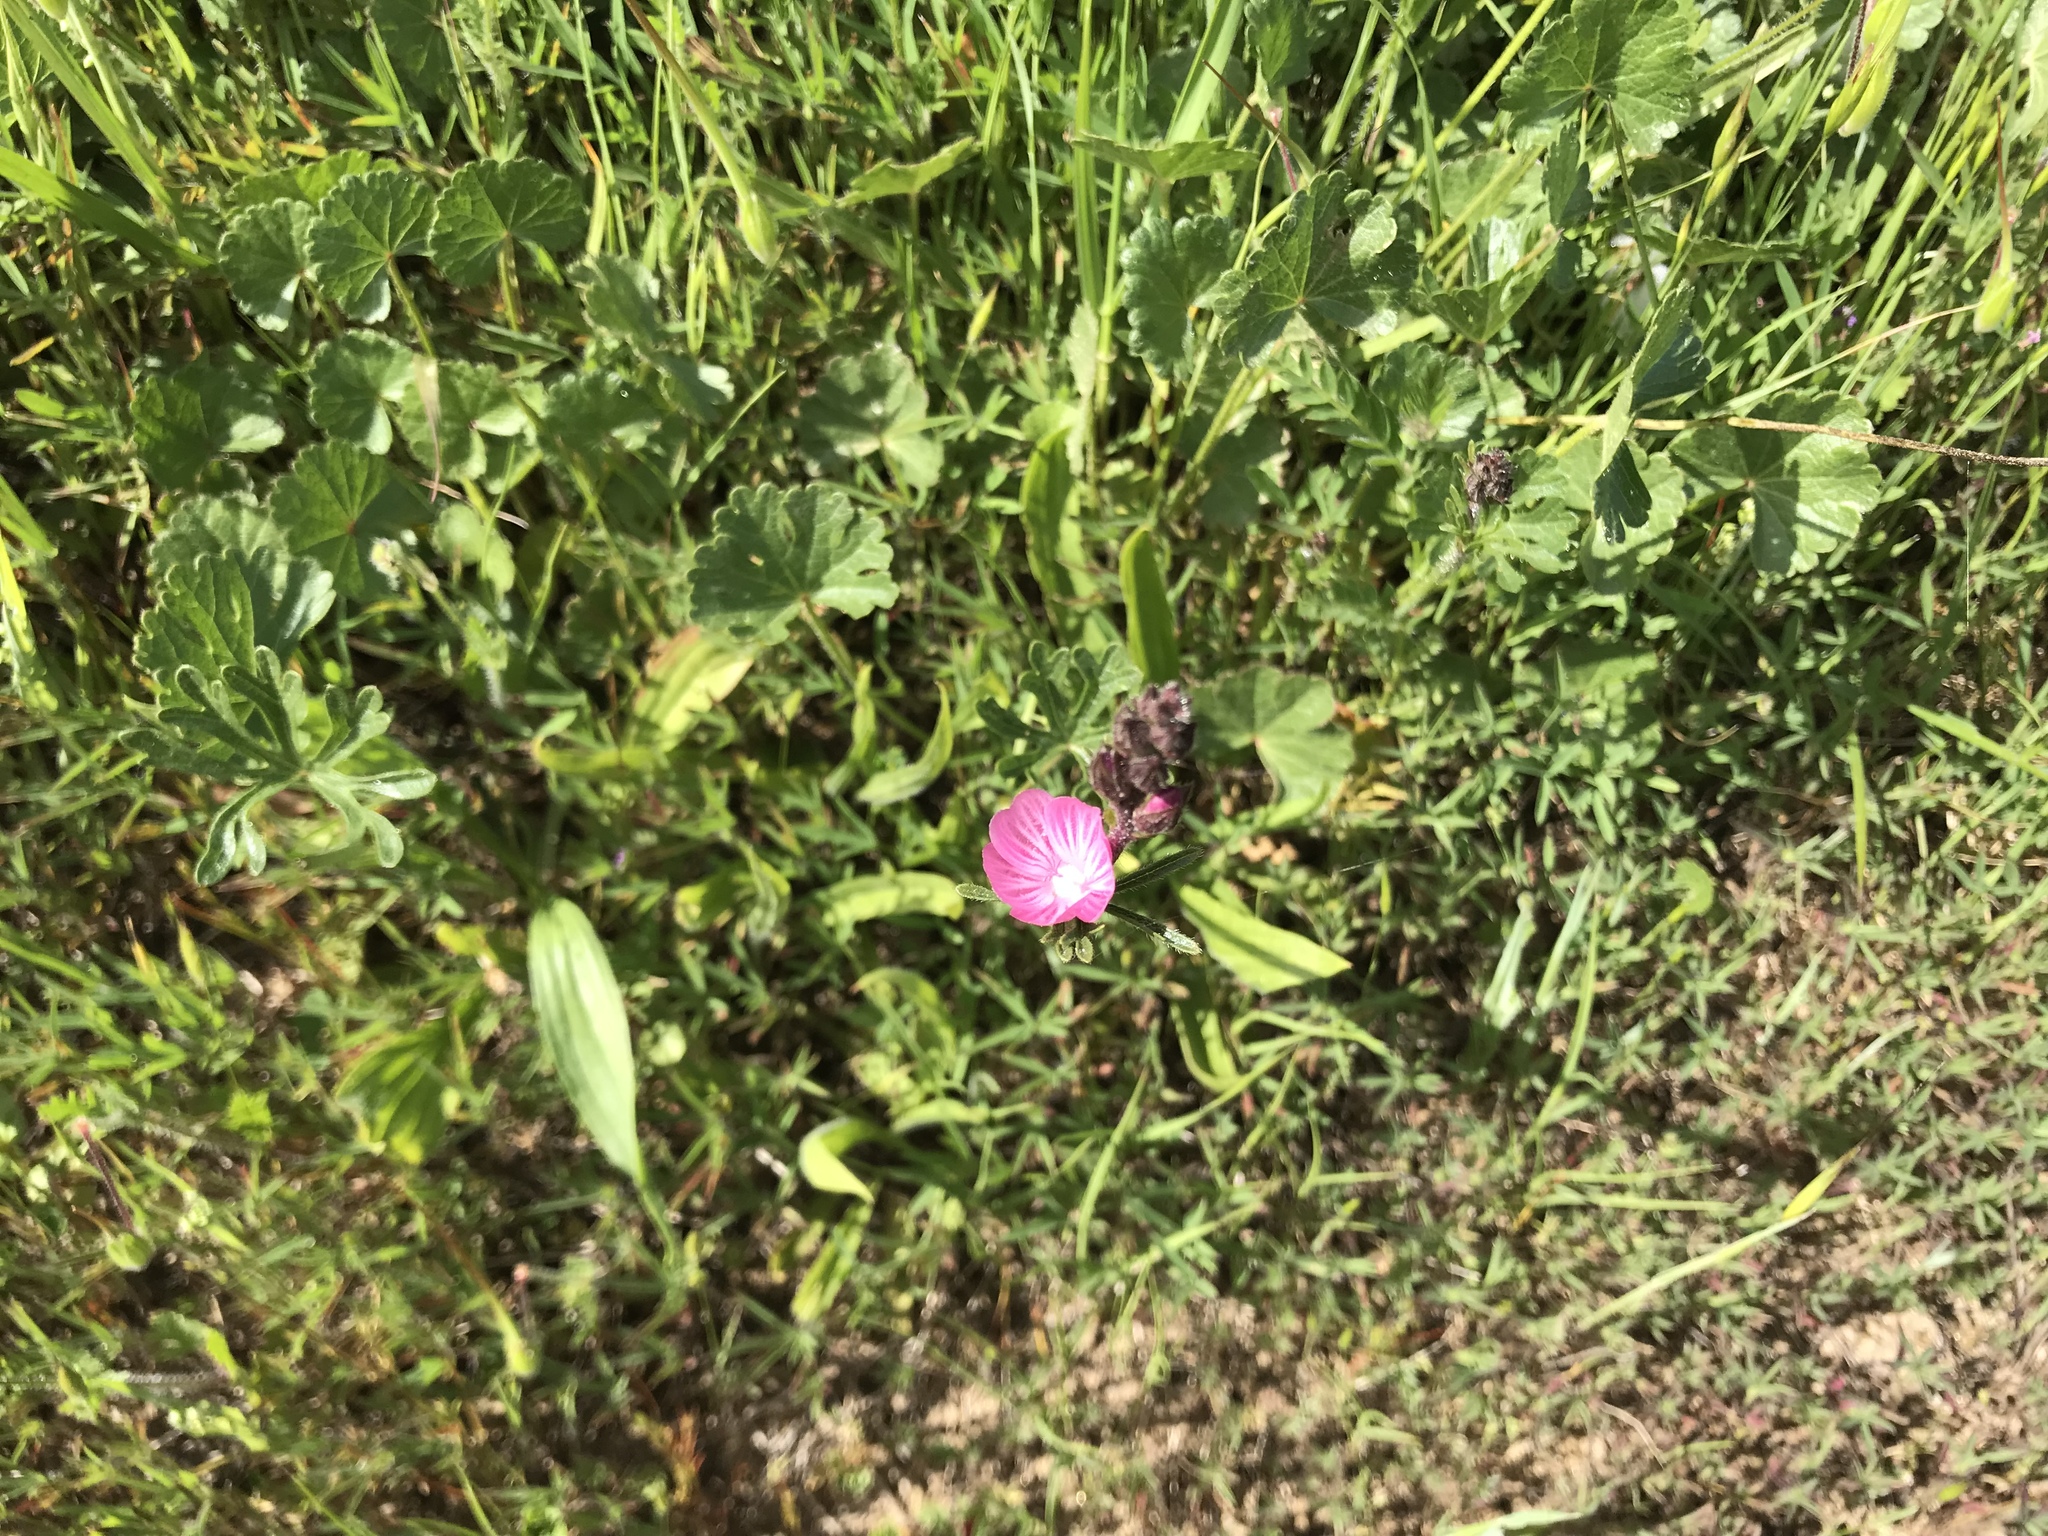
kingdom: Plantae
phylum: Tracheophyta
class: Magnoliopsida
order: Malvales
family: Malvaceae
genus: Sidalcea
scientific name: Sidalcea malviflora
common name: Greek mallow
